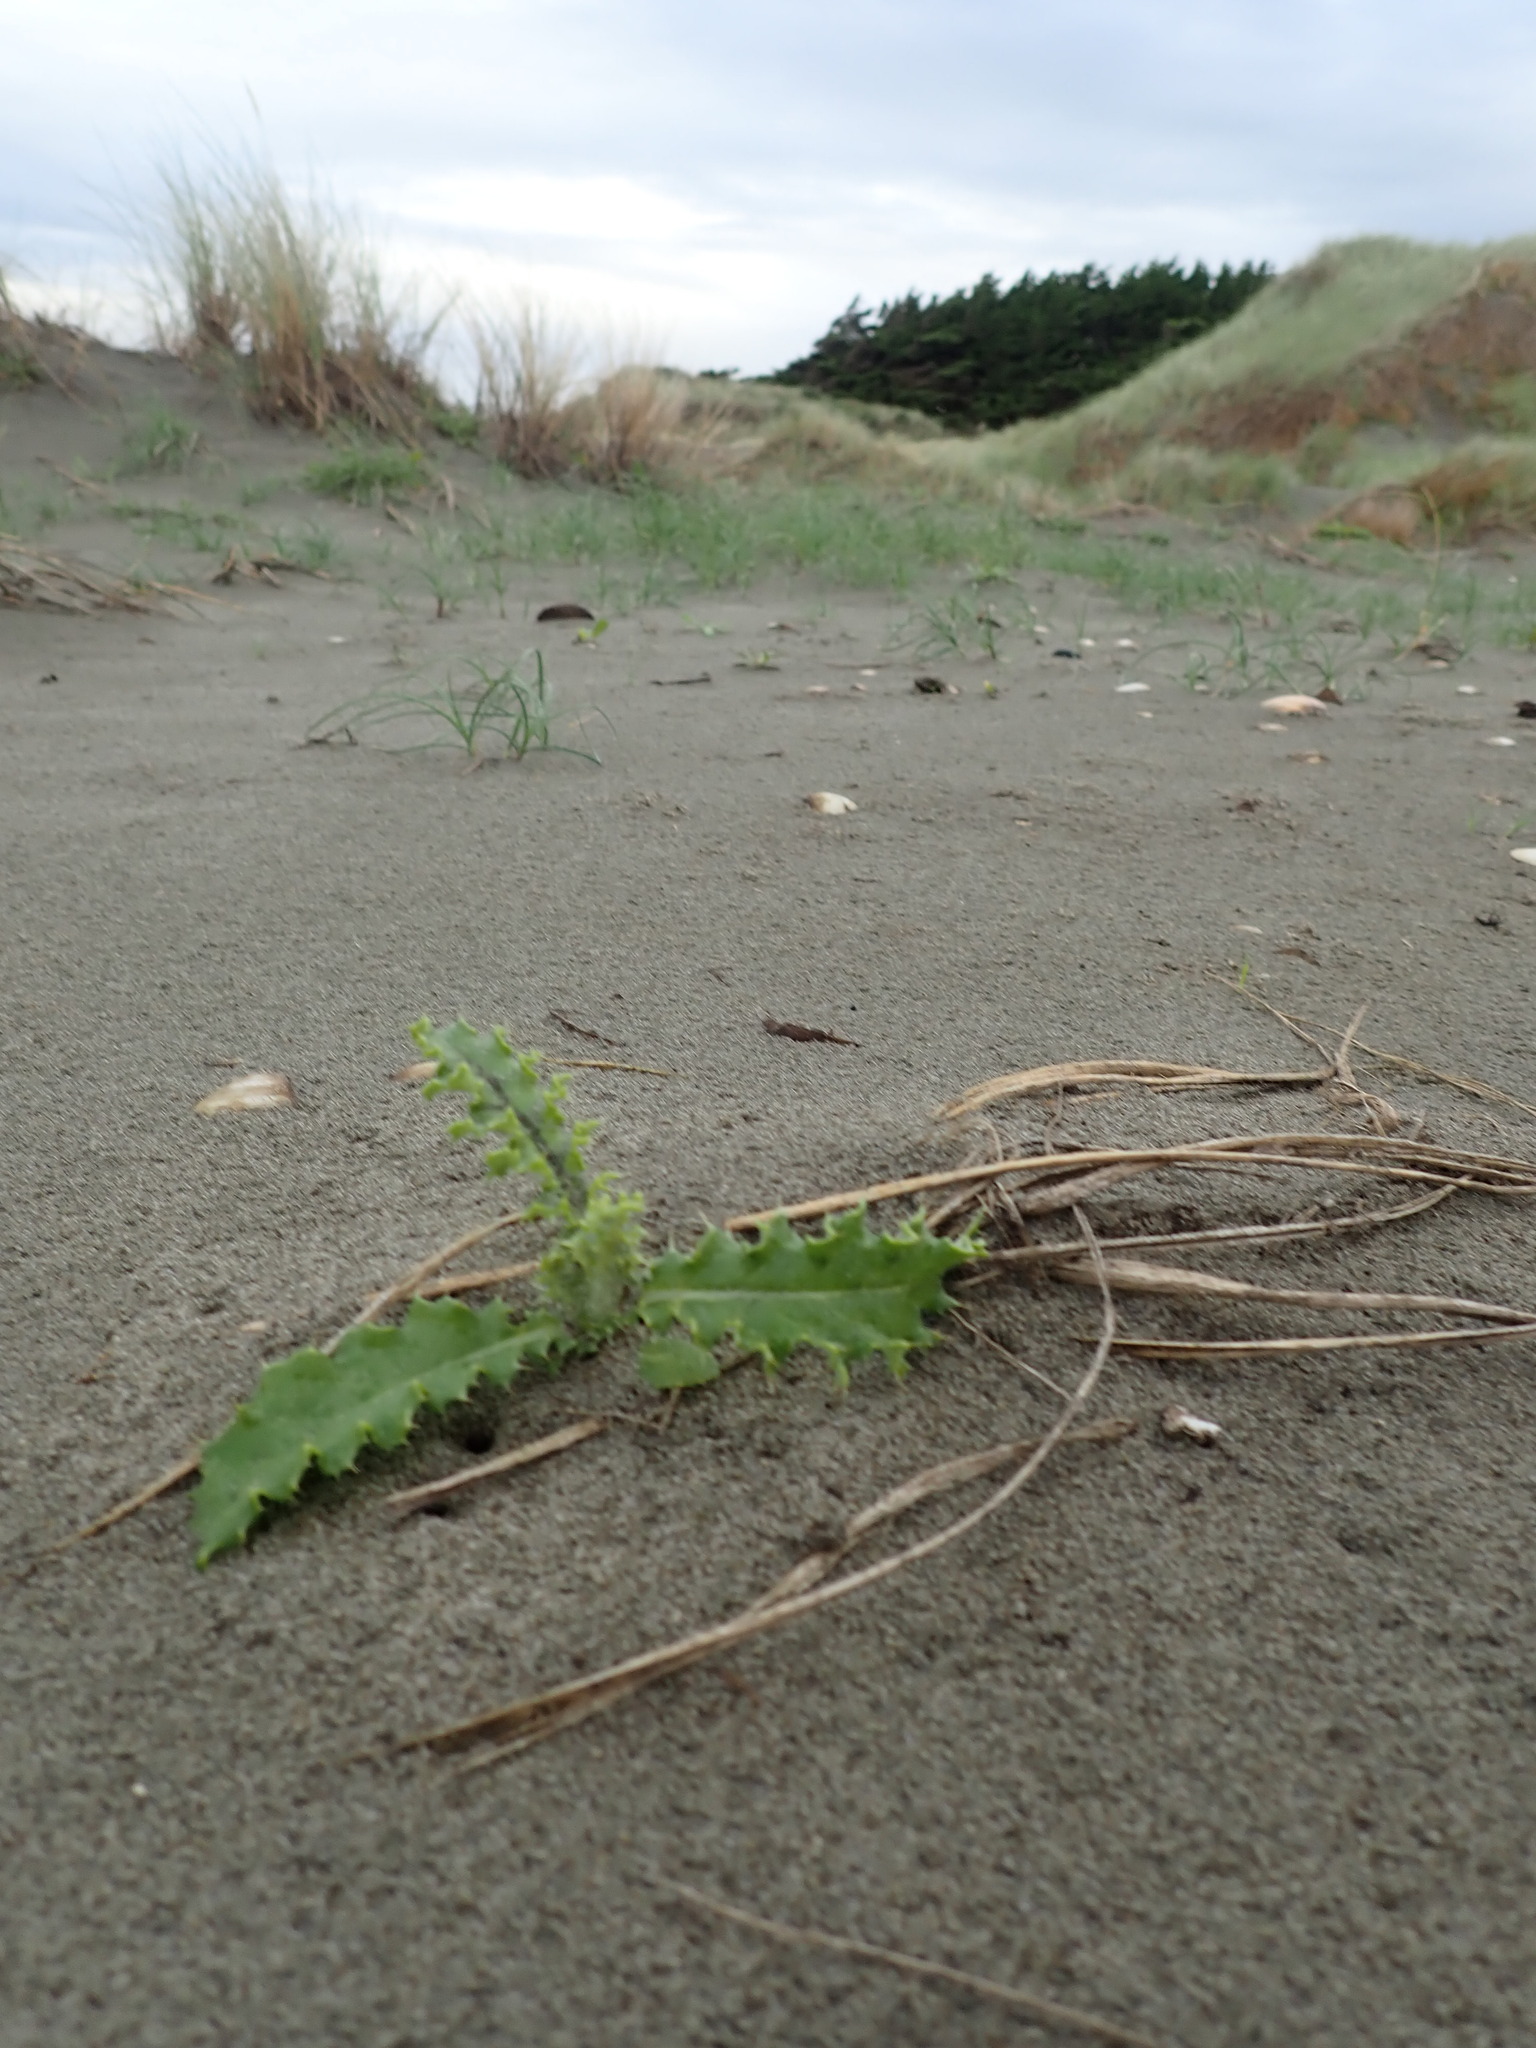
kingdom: Plantae
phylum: Tracheophyta
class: Magnoliopsida
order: Asterales
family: Asteraceae
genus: Sonchus
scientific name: Sonchus asper
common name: Prickly sow-thistle
